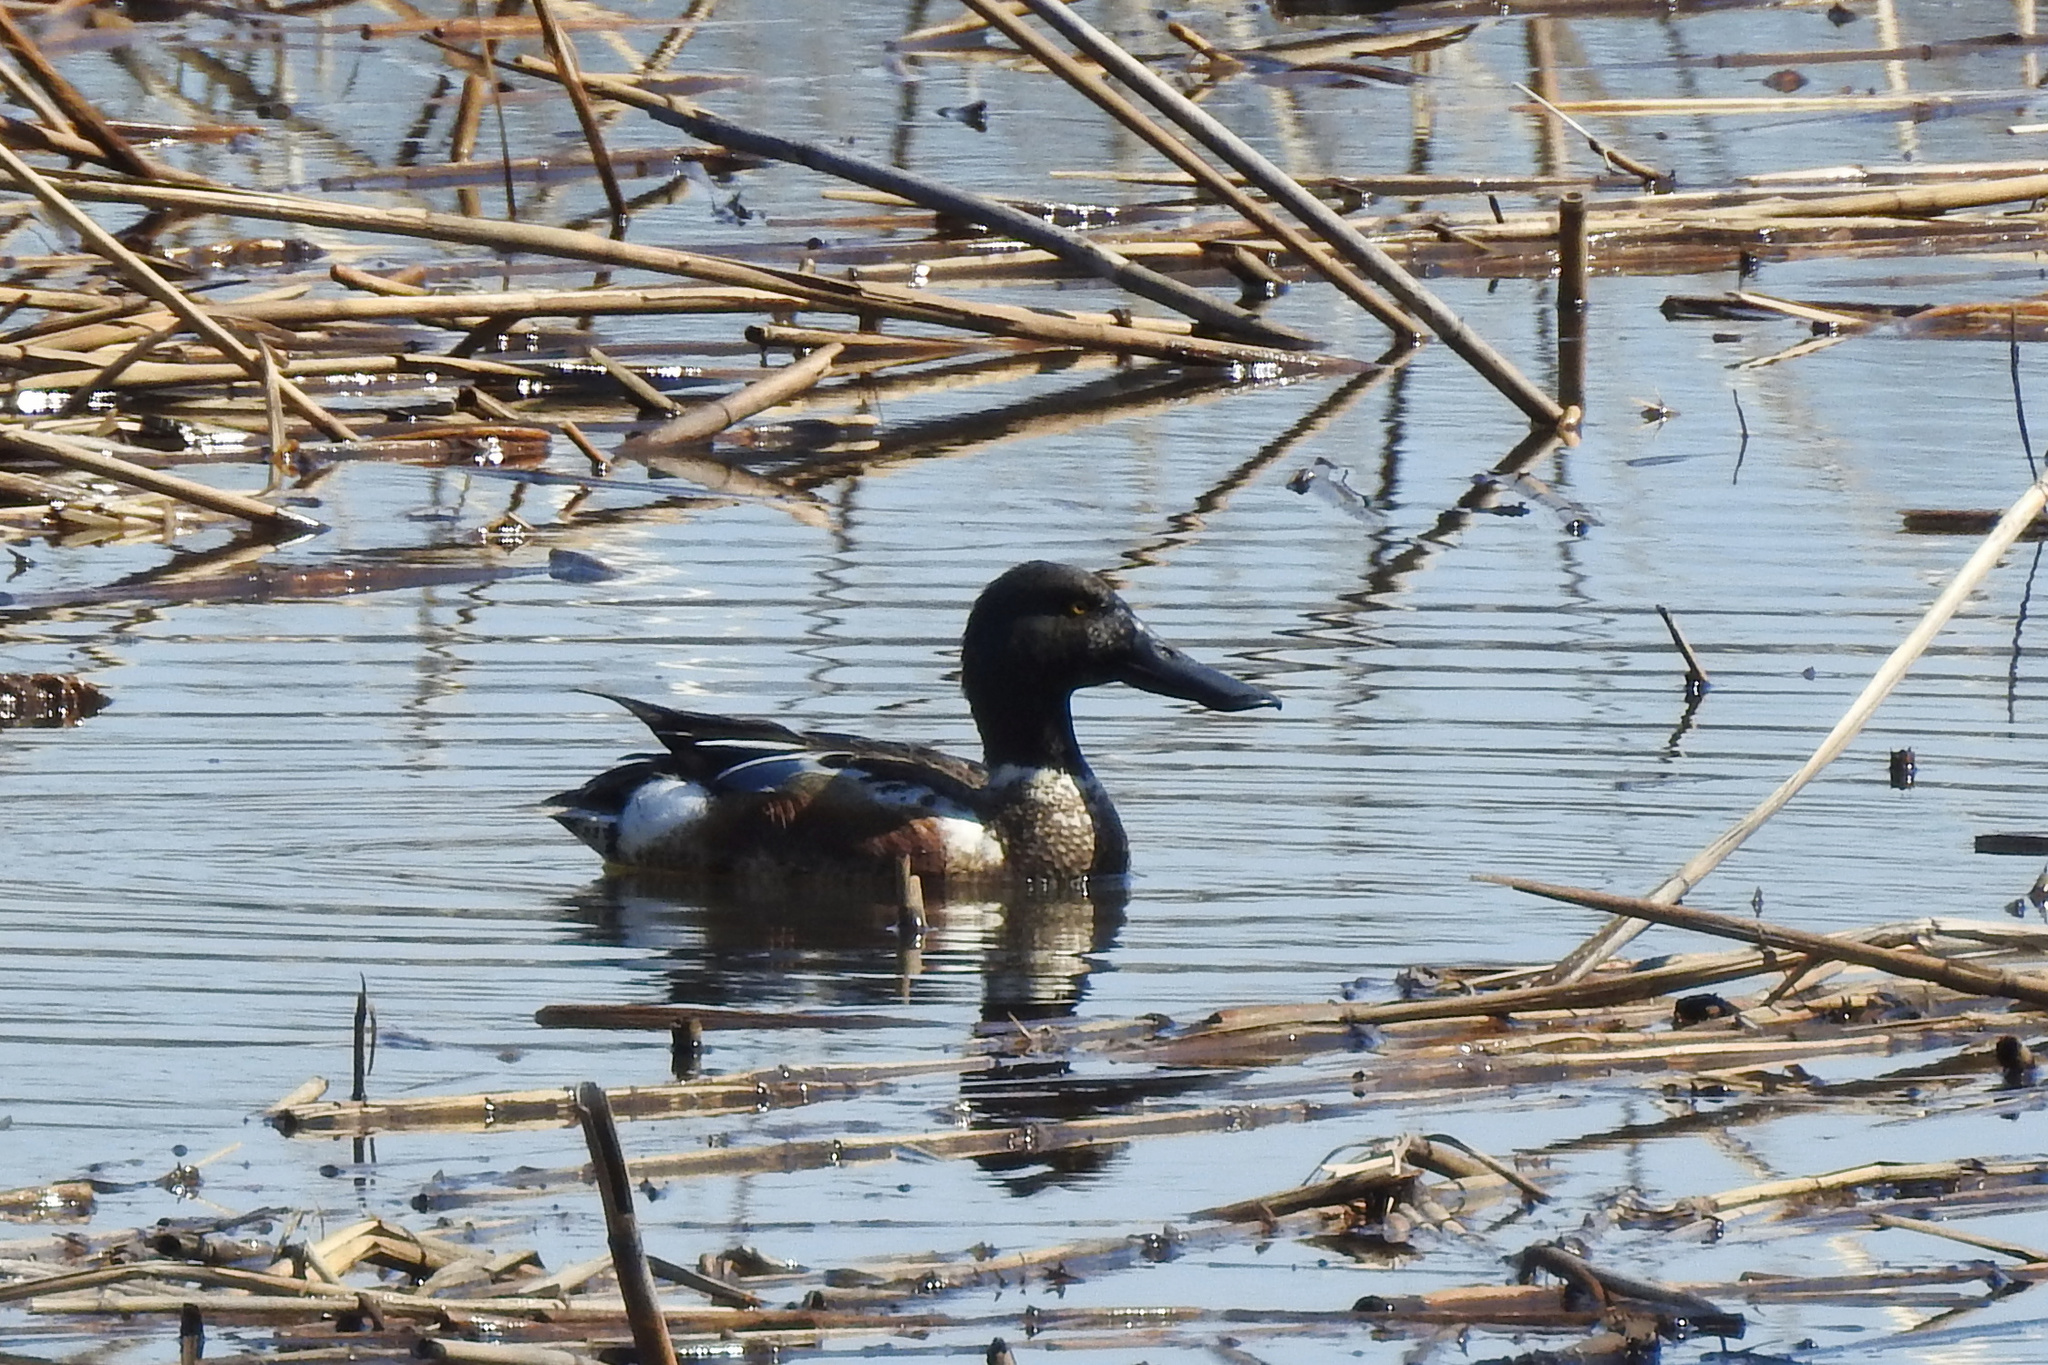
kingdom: Animalia
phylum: Chordata
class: Aves
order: Anseriformes
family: Anatidae
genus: Spatula
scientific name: Spatula clypeata
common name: Northern shoveler
